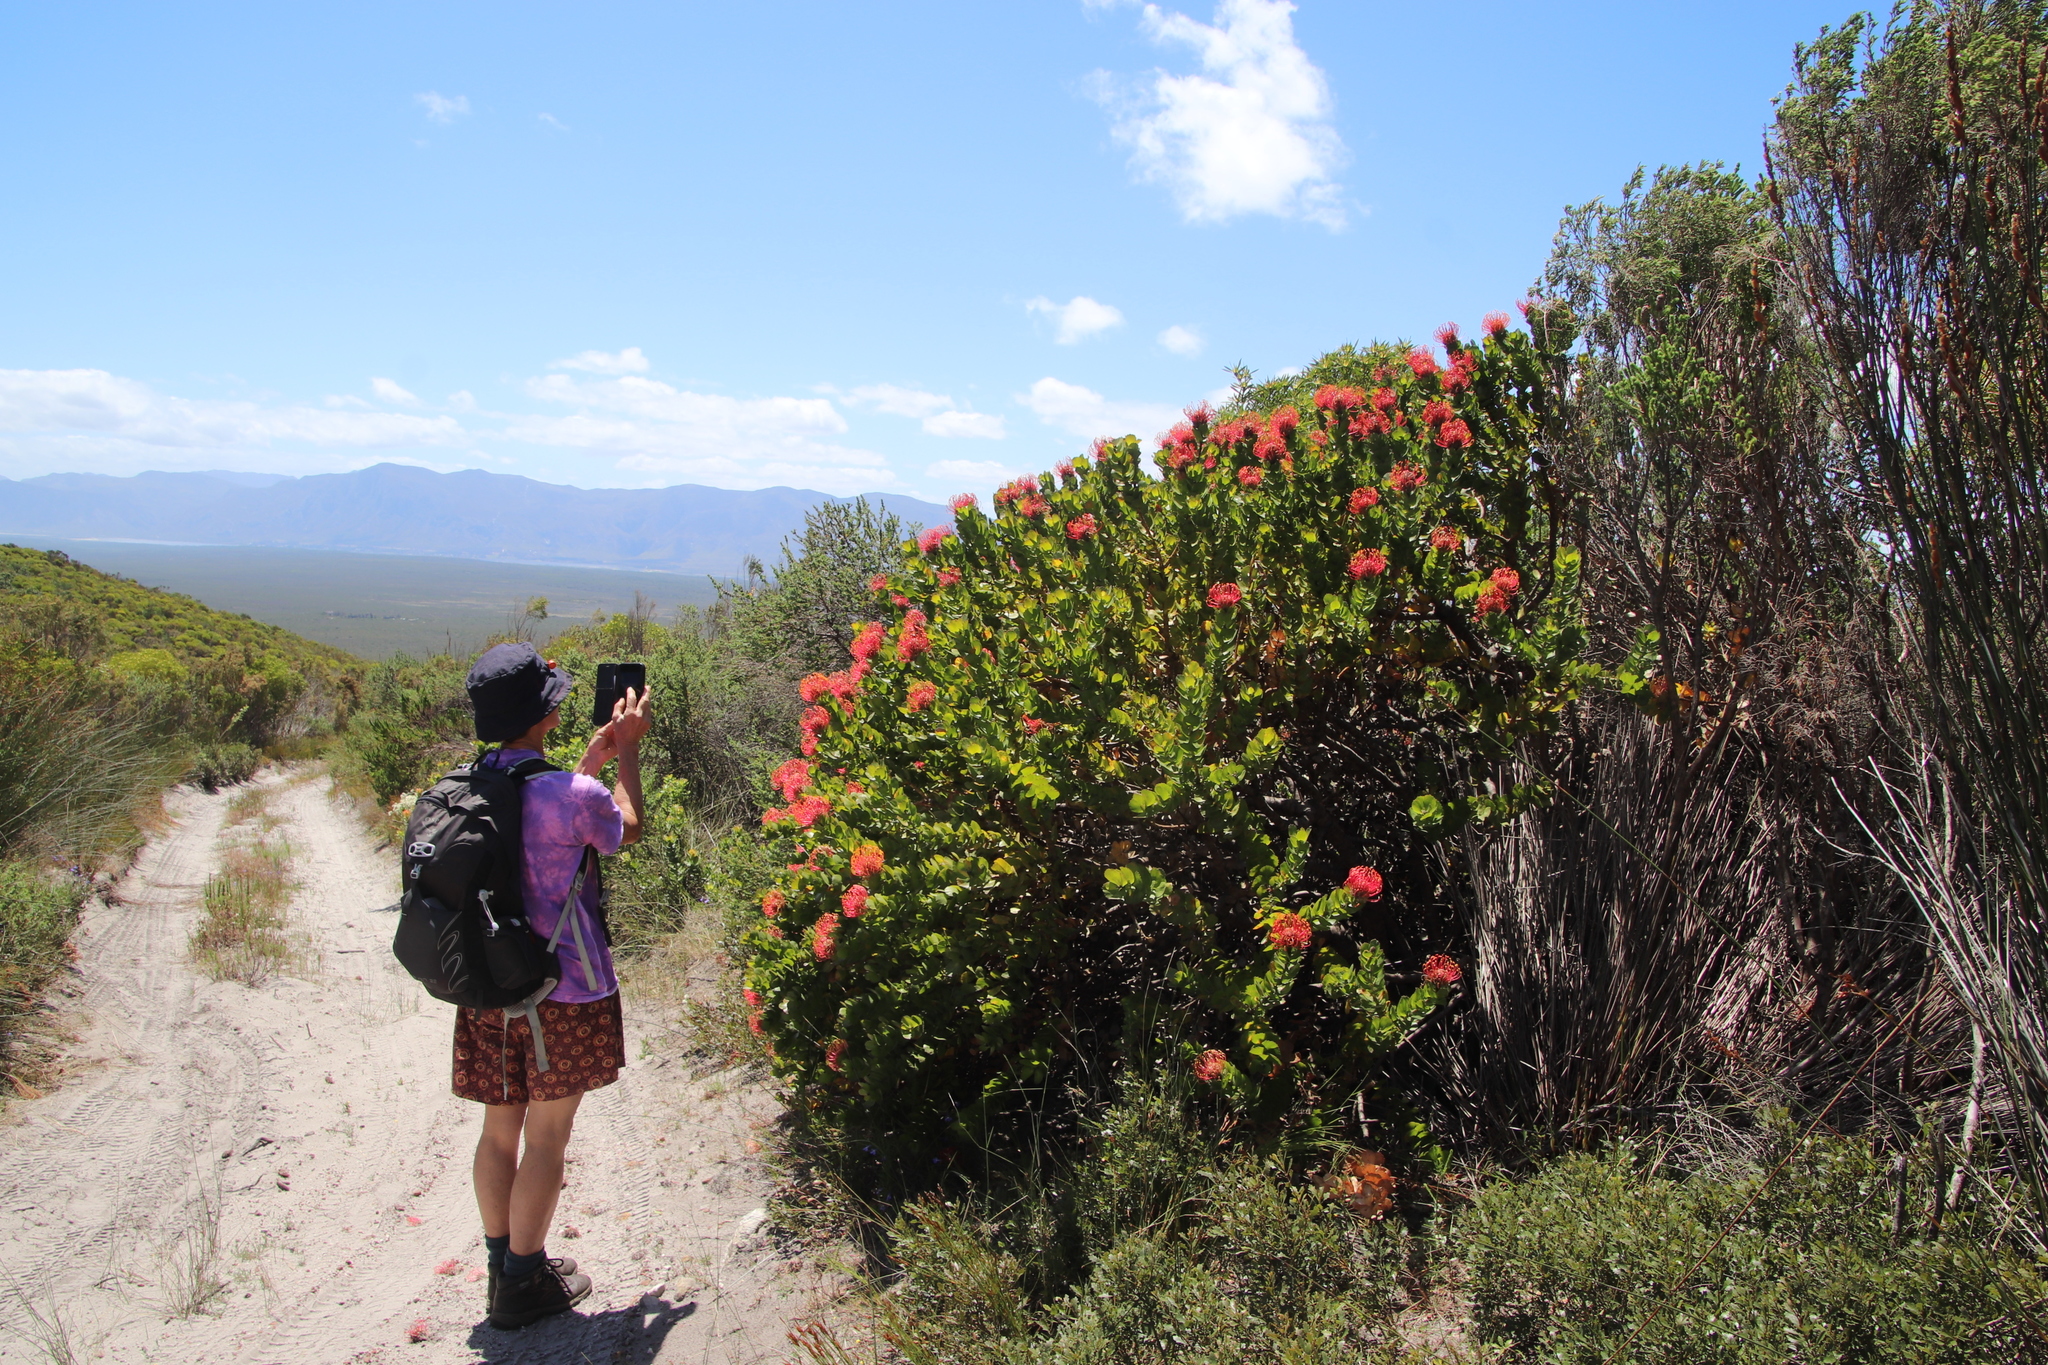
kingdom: Plantae
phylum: Tracheophyta
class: Magnoliopsida
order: Proteales
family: Proteaceae
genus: Leucospermum
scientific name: Leucospermum patersonii
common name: False tree pincushion
